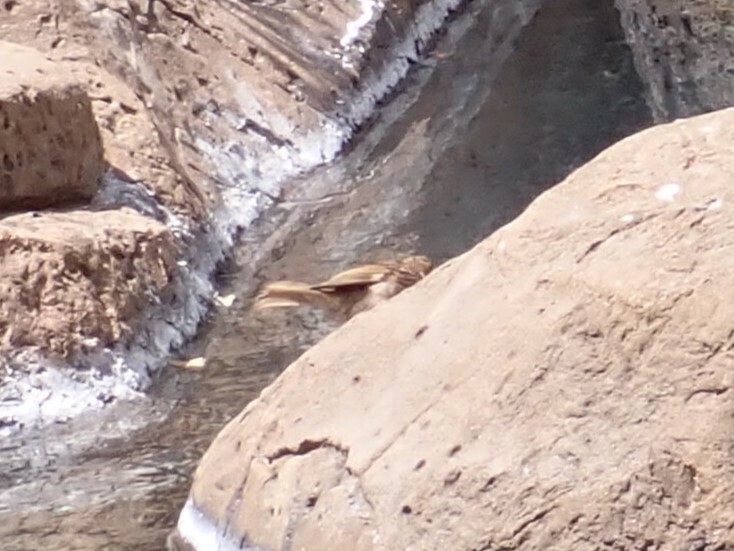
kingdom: Animalia
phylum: Chordata
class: Aves
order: Passeriformes
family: Passeridae
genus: Passer
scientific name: Passer domesticus
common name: House sparrow
